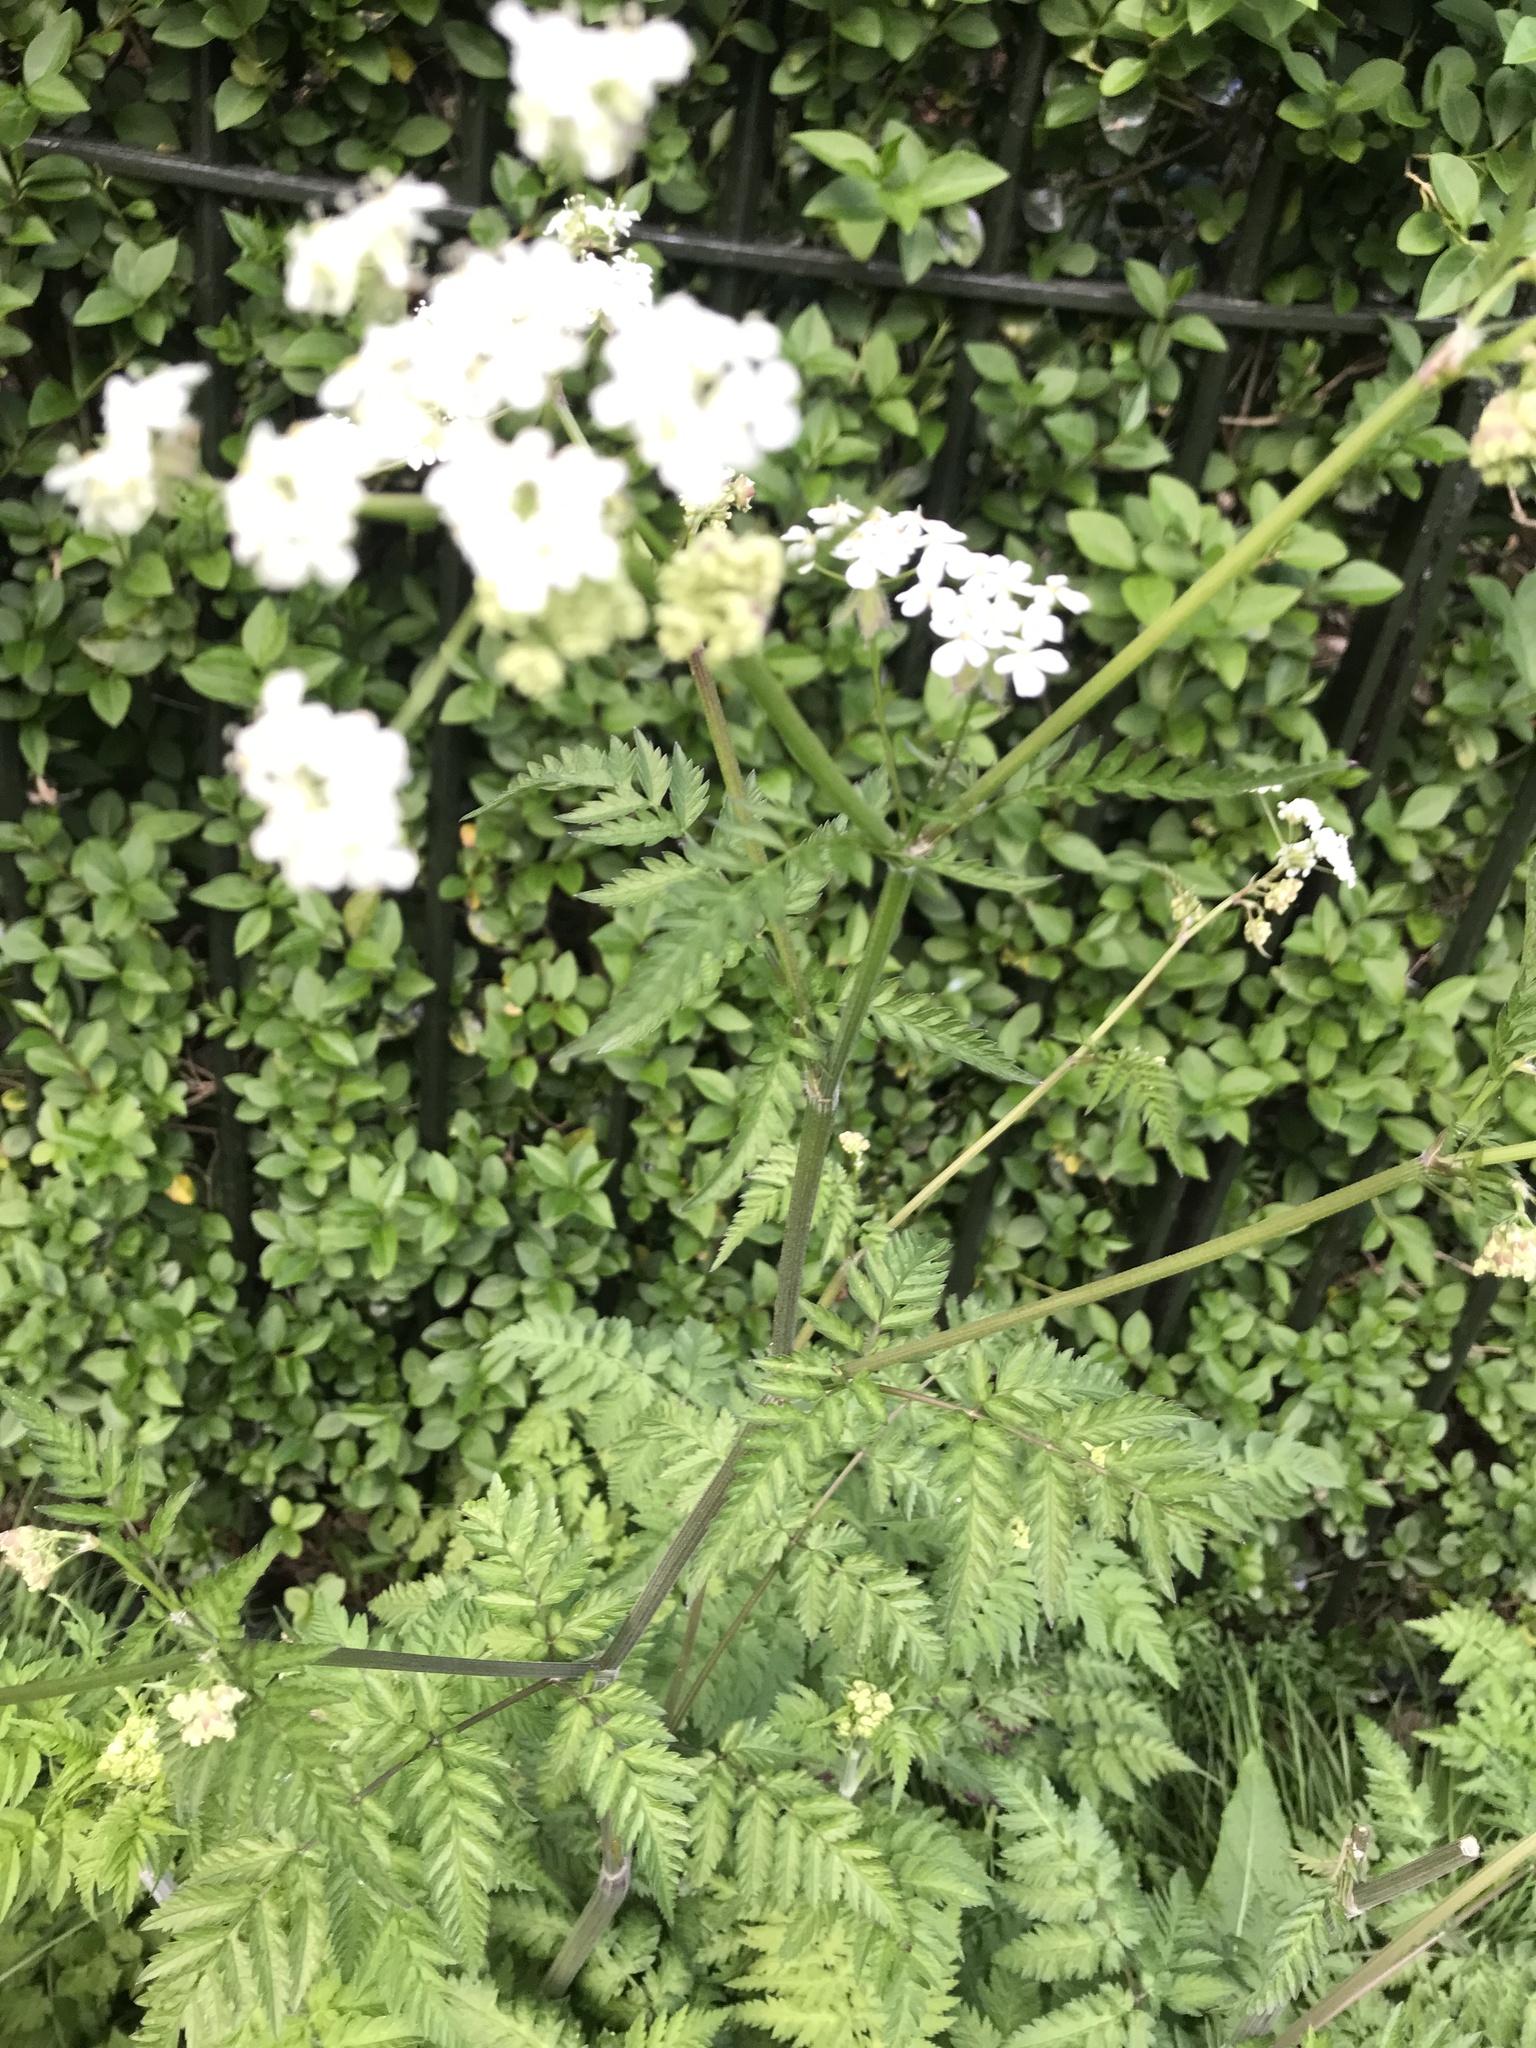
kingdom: Plantae
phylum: Tracheophyta
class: Magnoliopsida
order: Apiales
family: Apiaceae
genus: Anthriscus
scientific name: Anthriscus sylvestris
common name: Cow parsley
